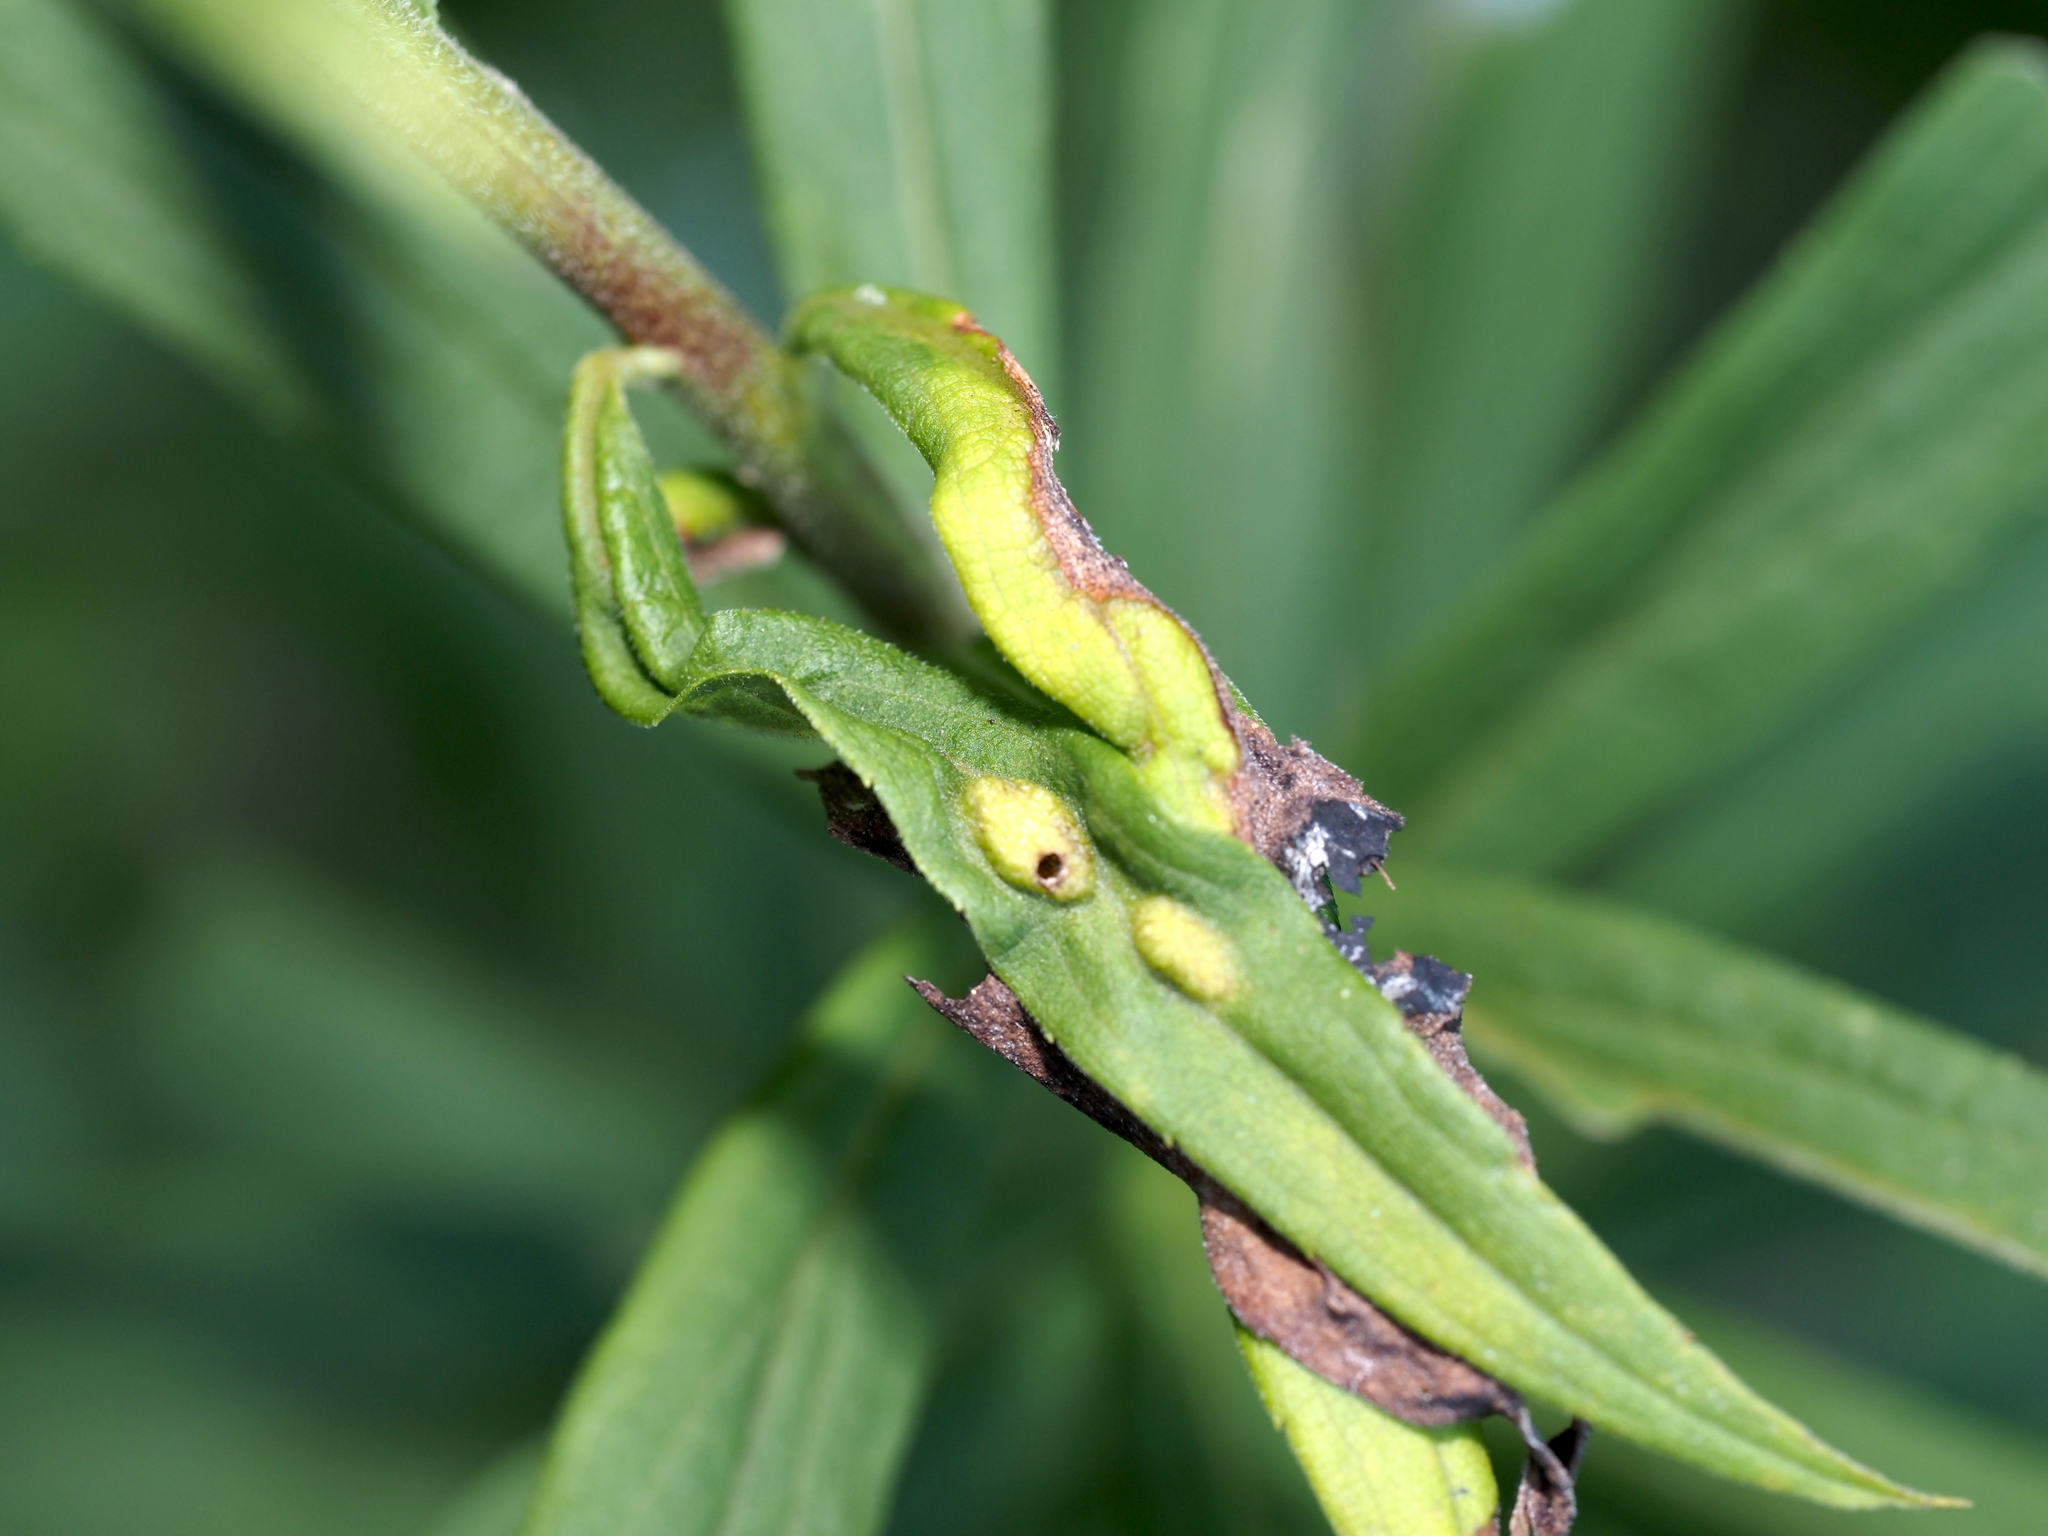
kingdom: Animalia
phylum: Arthropoda
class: Insecta
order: Diptera
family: Cecidomyiidae
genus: Asphondylia
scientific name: Asphondylia solidaginis
